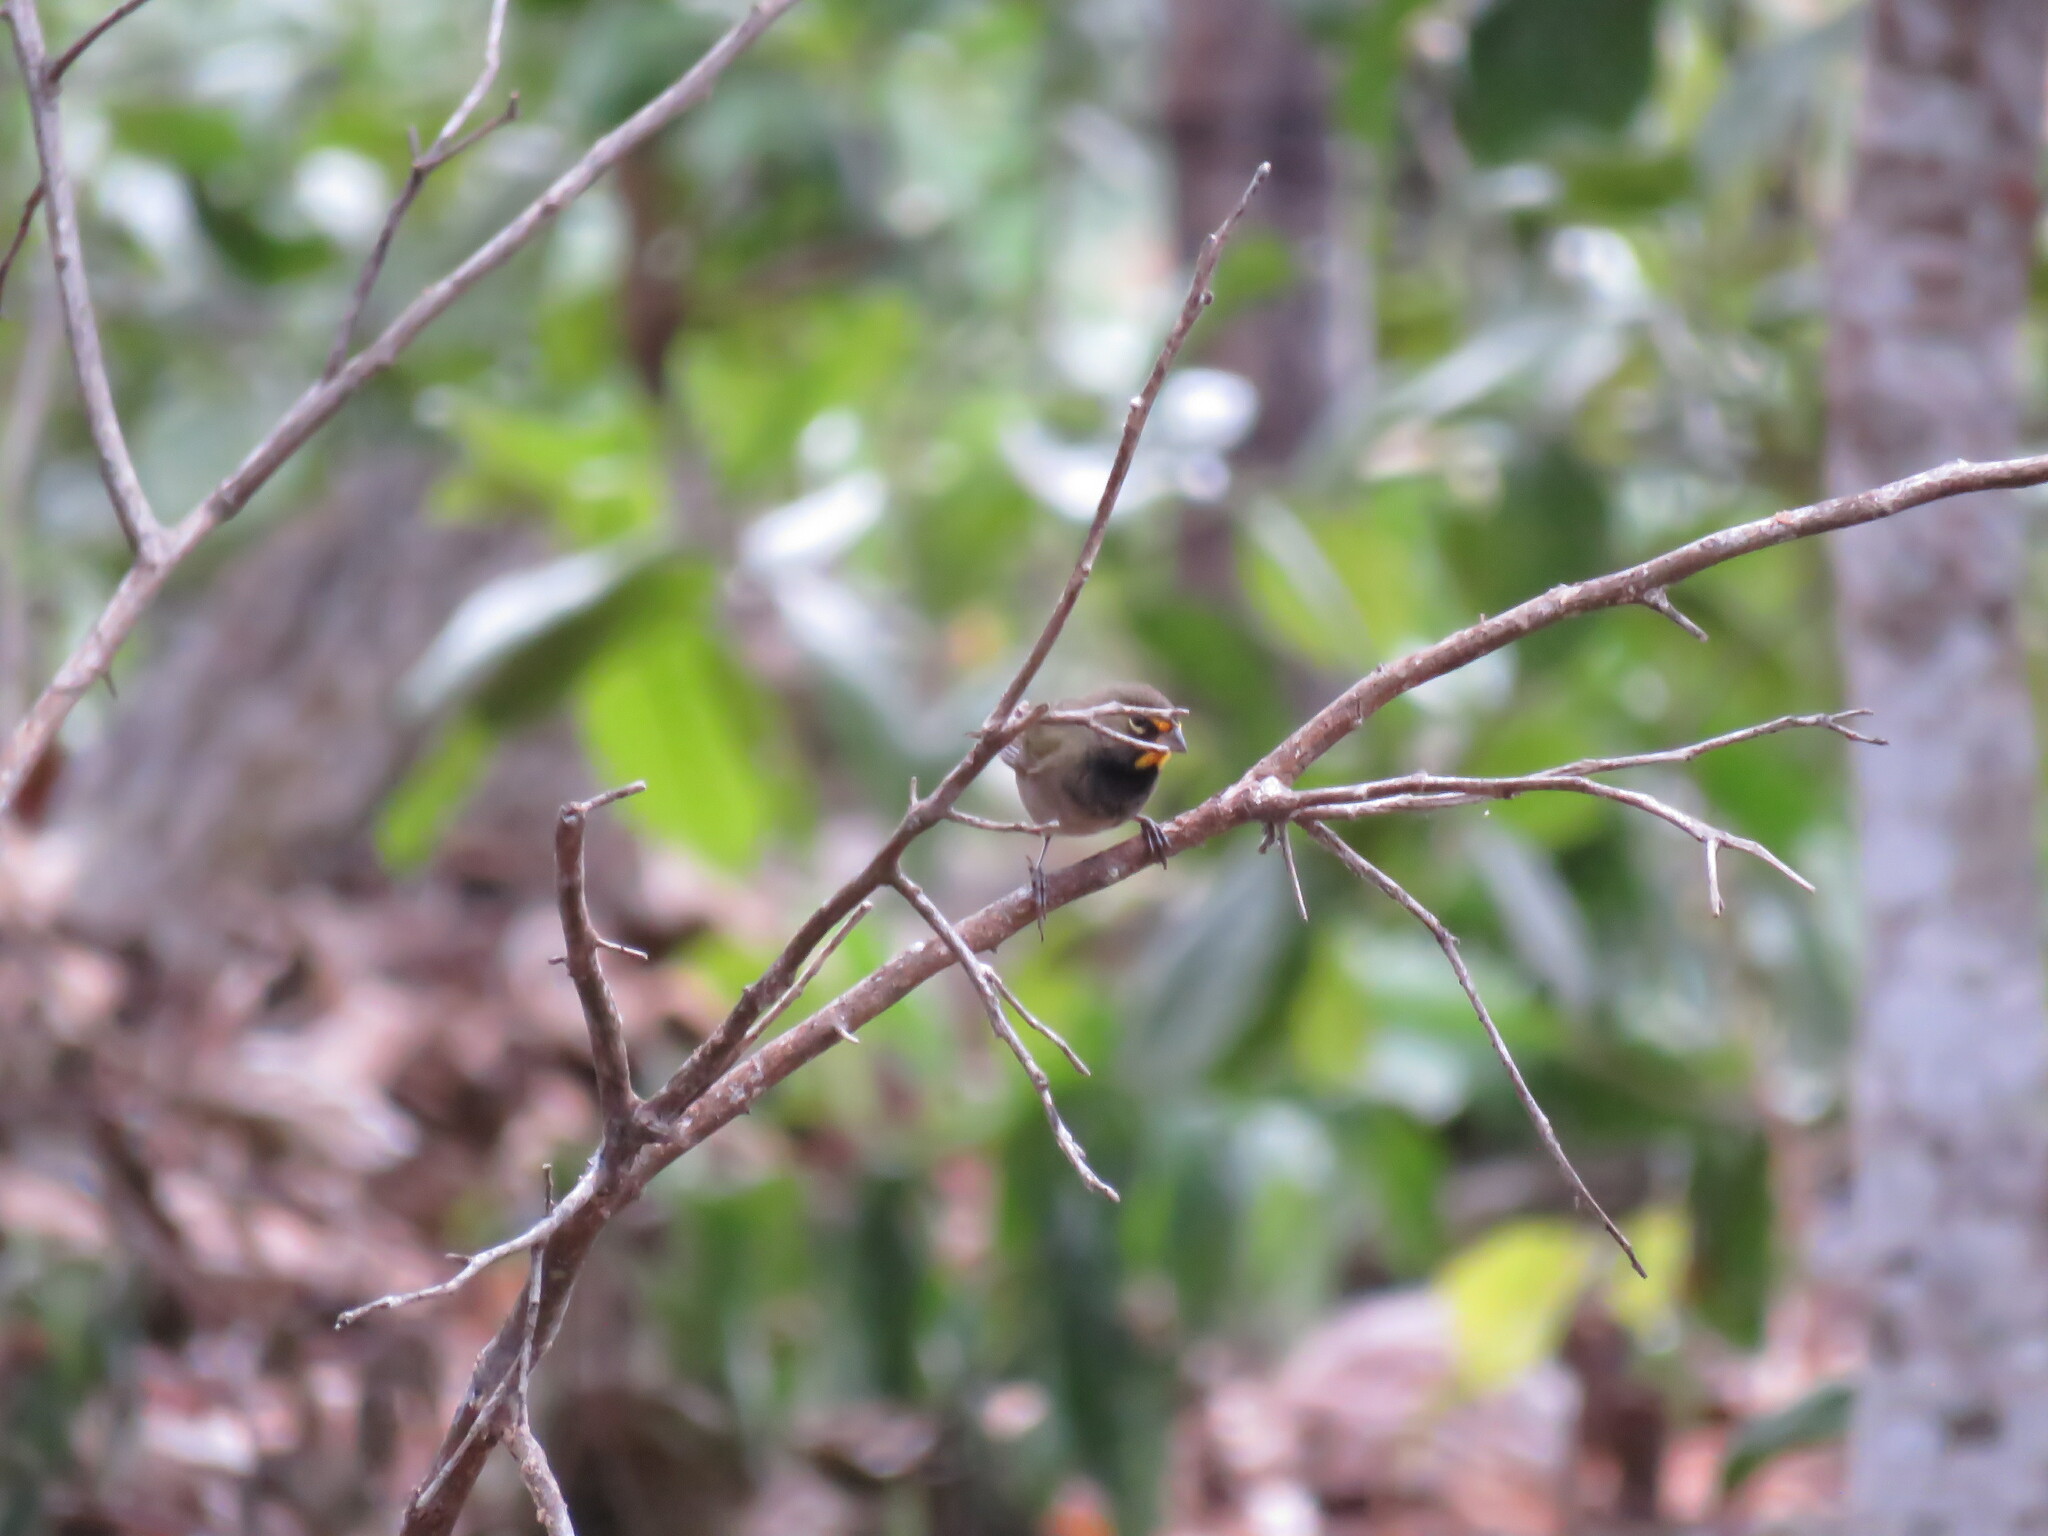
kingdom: Animalia
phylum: Chordata
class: Aves
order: Passeriformes
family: Thraupidae
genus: Tiaris
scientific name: Tiaris olivaceus
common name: Yellow-faced grassquit
